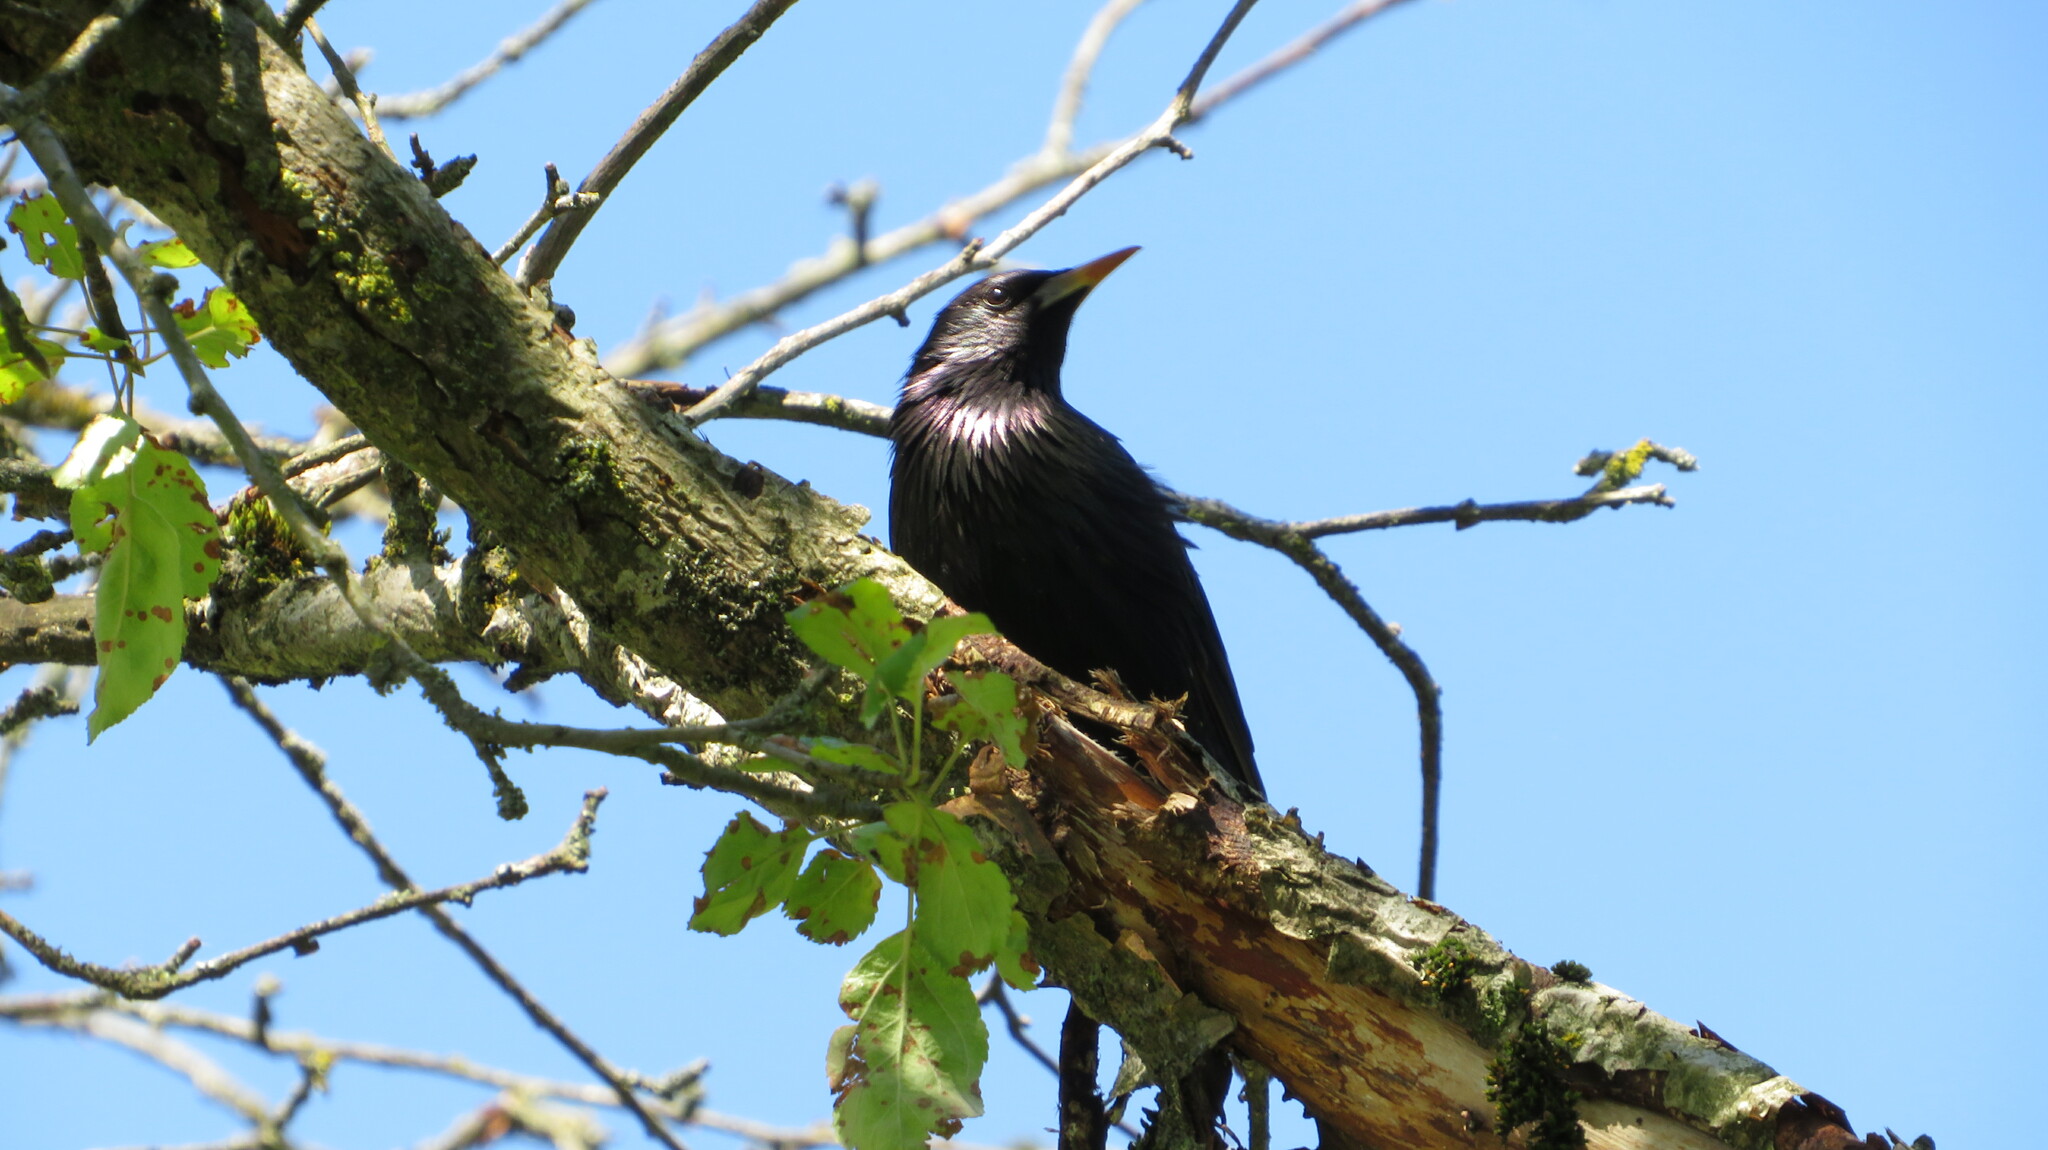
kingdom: Animalia
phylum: Chordata
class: Aves
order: Passeriformes
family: Sturnidae
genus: Sturnus
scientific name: Sturnus vulgaris
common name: Common starling
